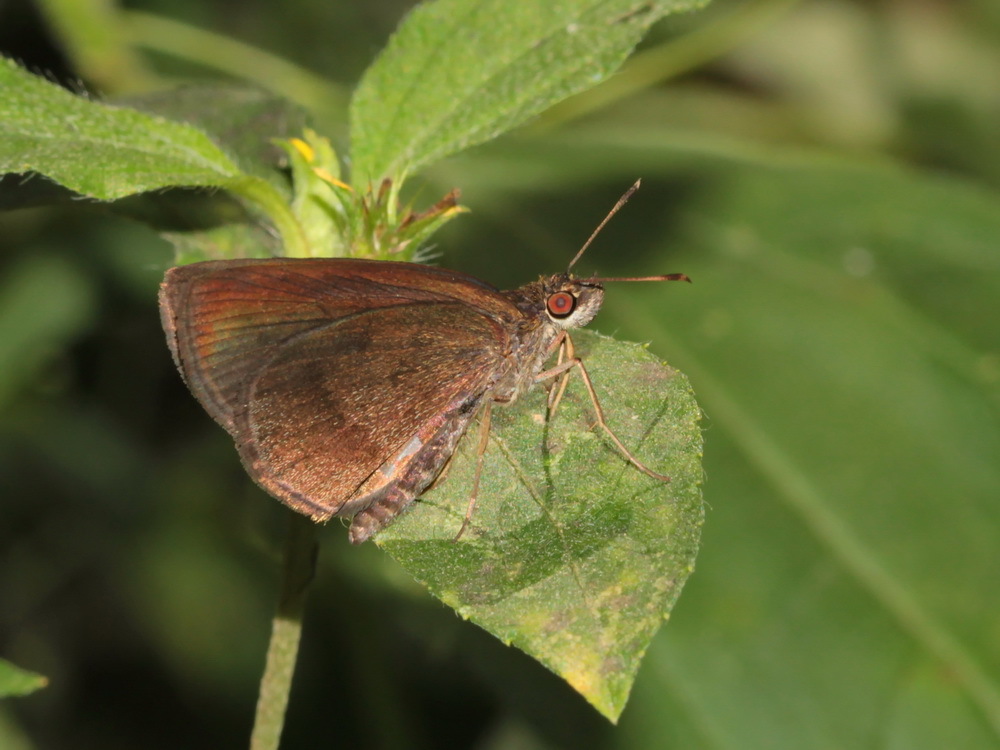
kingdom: Animalia
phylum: Arthropoda
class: Insecta
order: Lepidoptera
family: Hesperiidae
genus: Astictopterus
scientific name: Astictopterus jama
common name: Forest hopper
